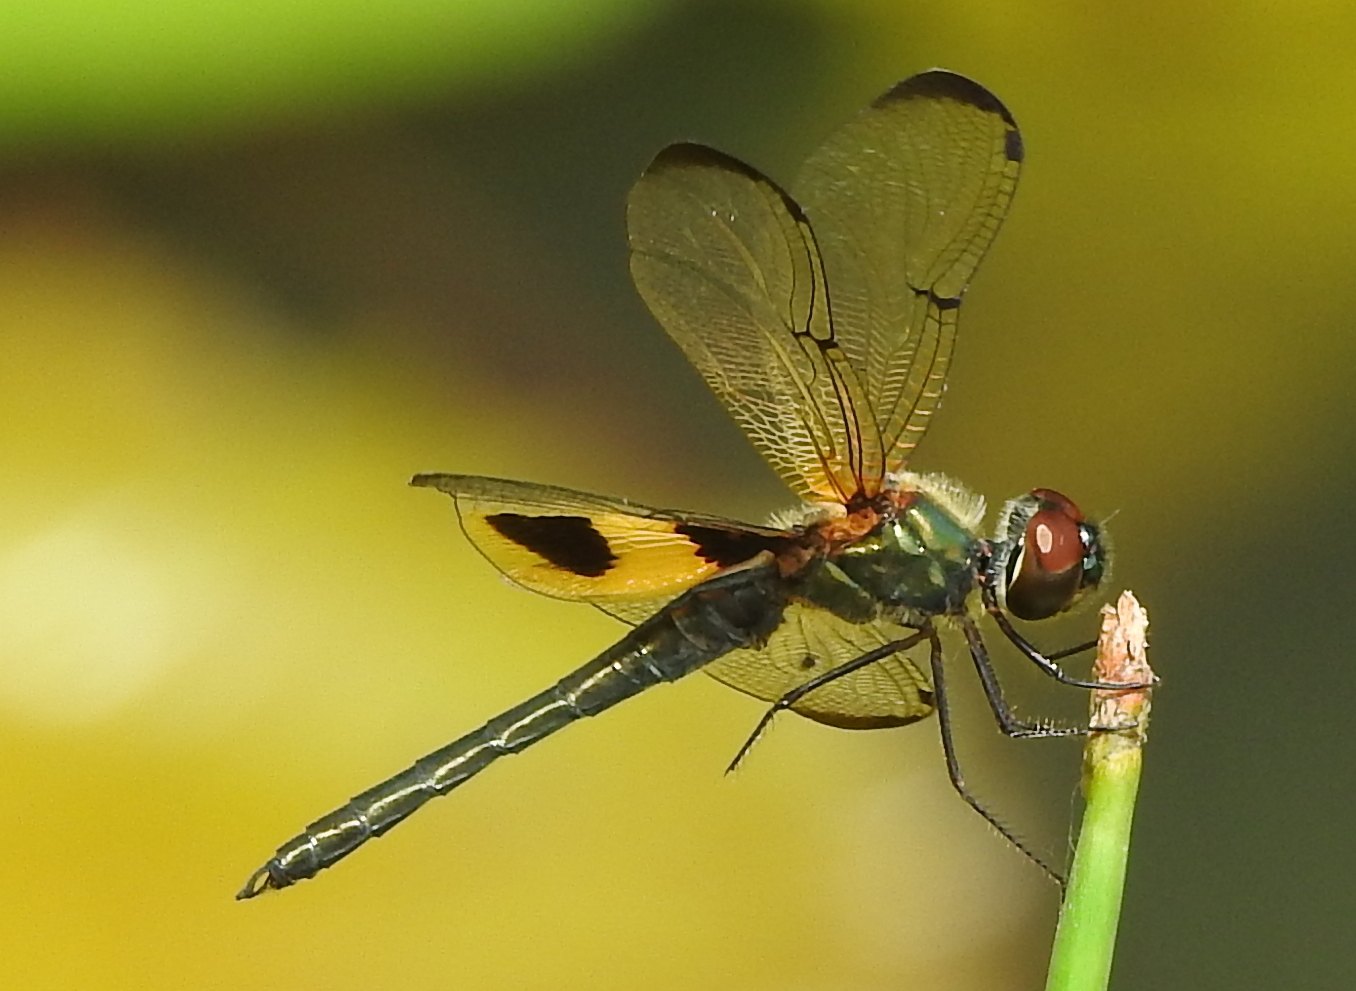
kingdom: Animalia
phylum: Arthropoda
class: Insecta
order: Odonata
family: Libellulidae
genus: Rhyothemis
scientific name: Rhyothemis phyllis
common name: Yellow-barred flutterer
